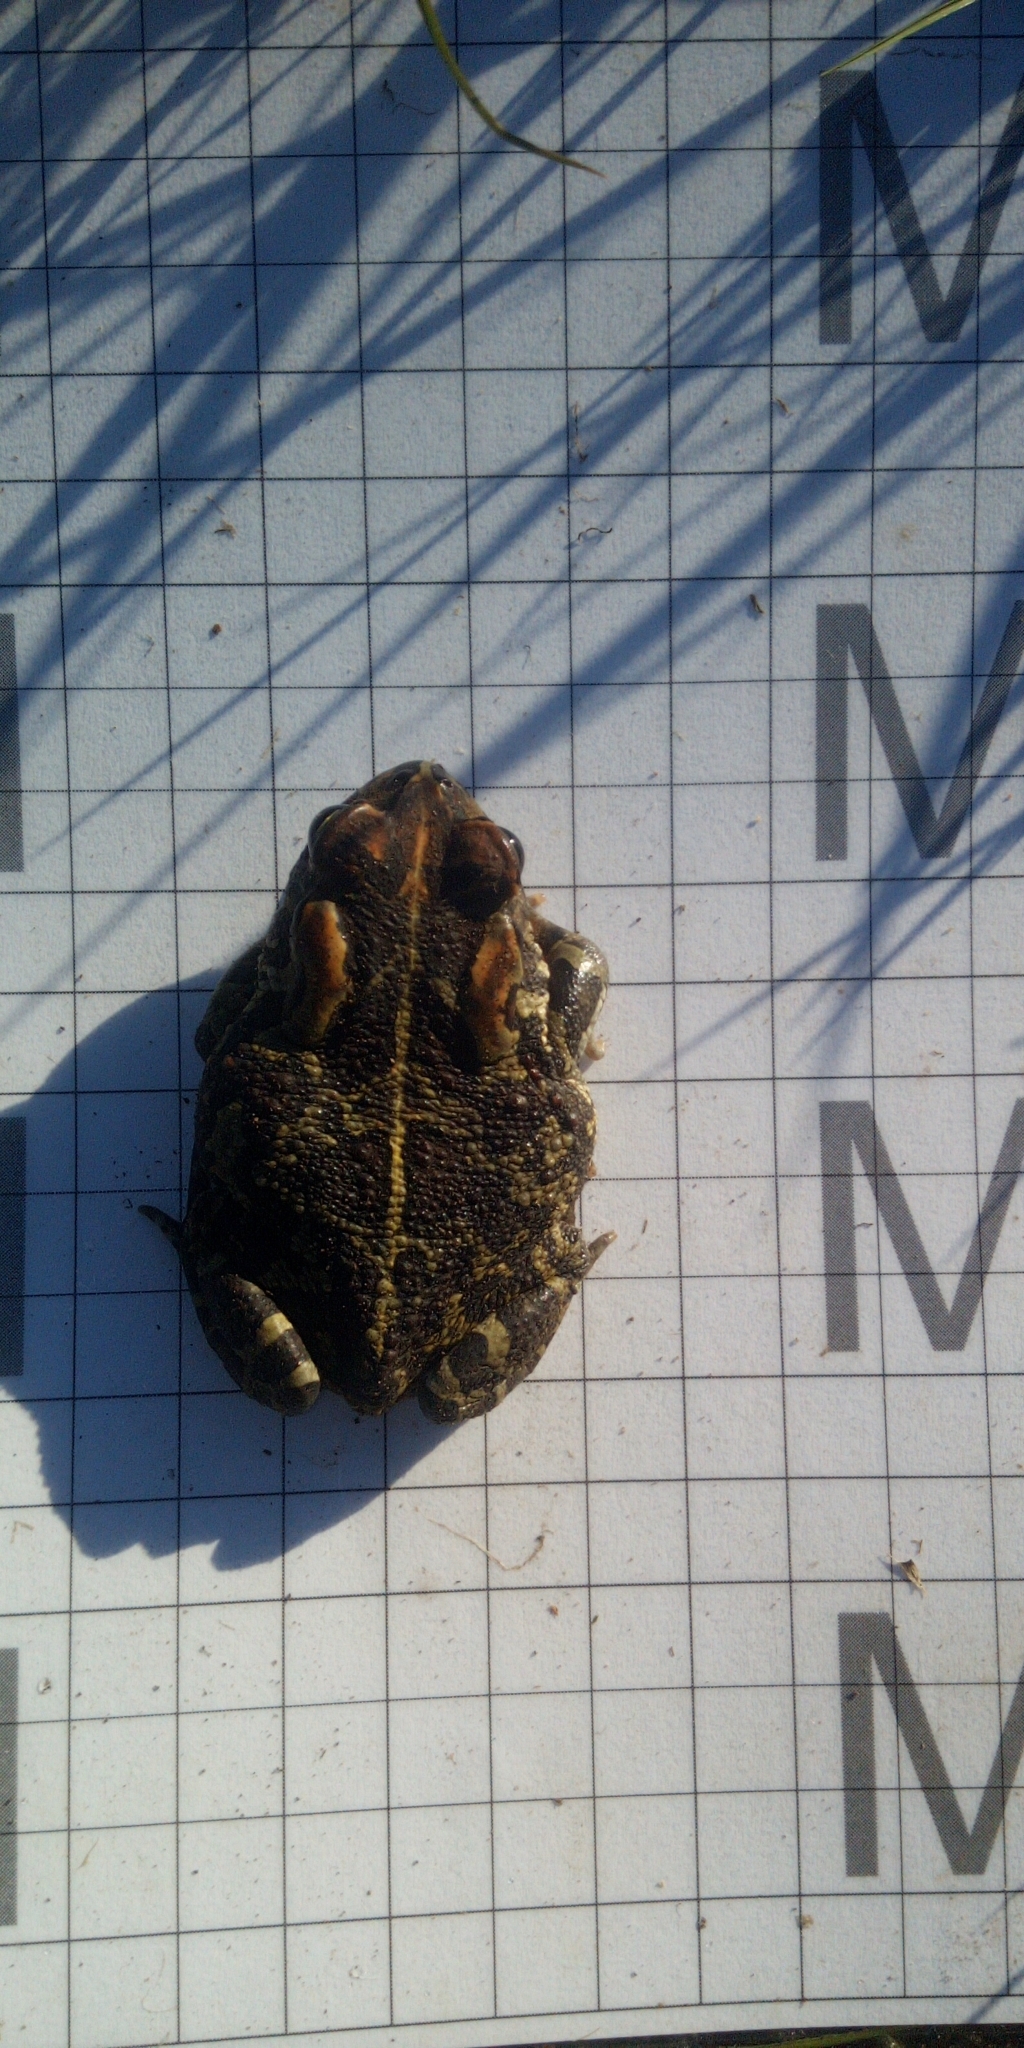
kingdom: Animalia
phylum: Chordata
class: Amphibia
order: Anura
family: Bufonidae
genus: Sclerophrys
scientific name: Sclerophrys pantherina
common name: Panther toad
